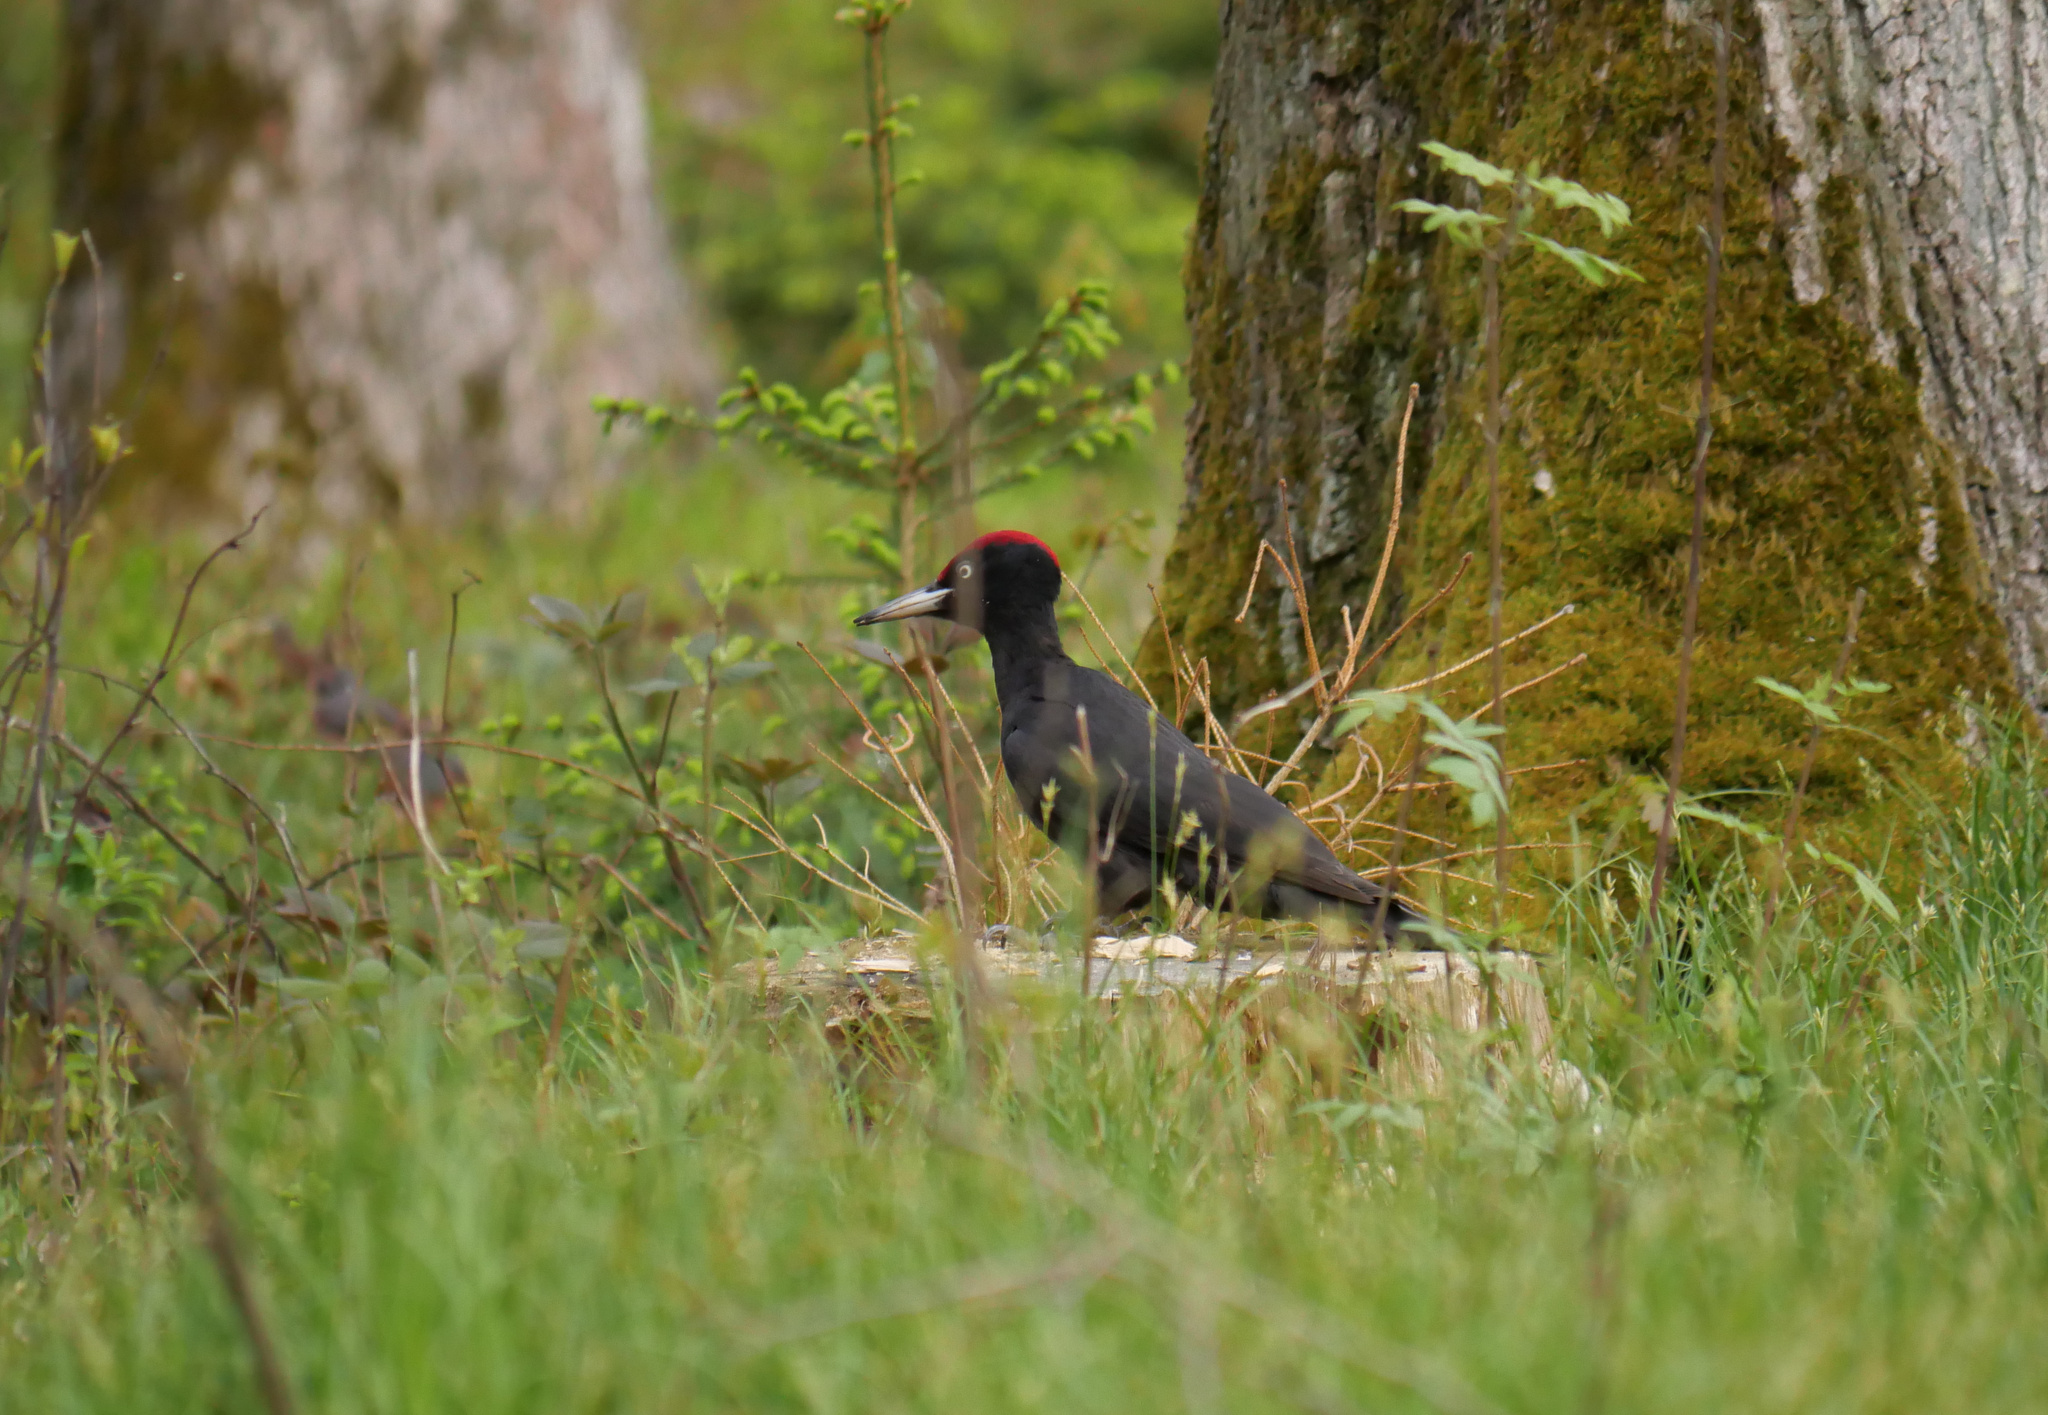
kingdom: Animalia
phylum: Chordata
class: Aves
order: Piciformes
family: Picidae
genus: Dryocopus
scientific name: Dryocopus martius
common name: Black woodpecker
